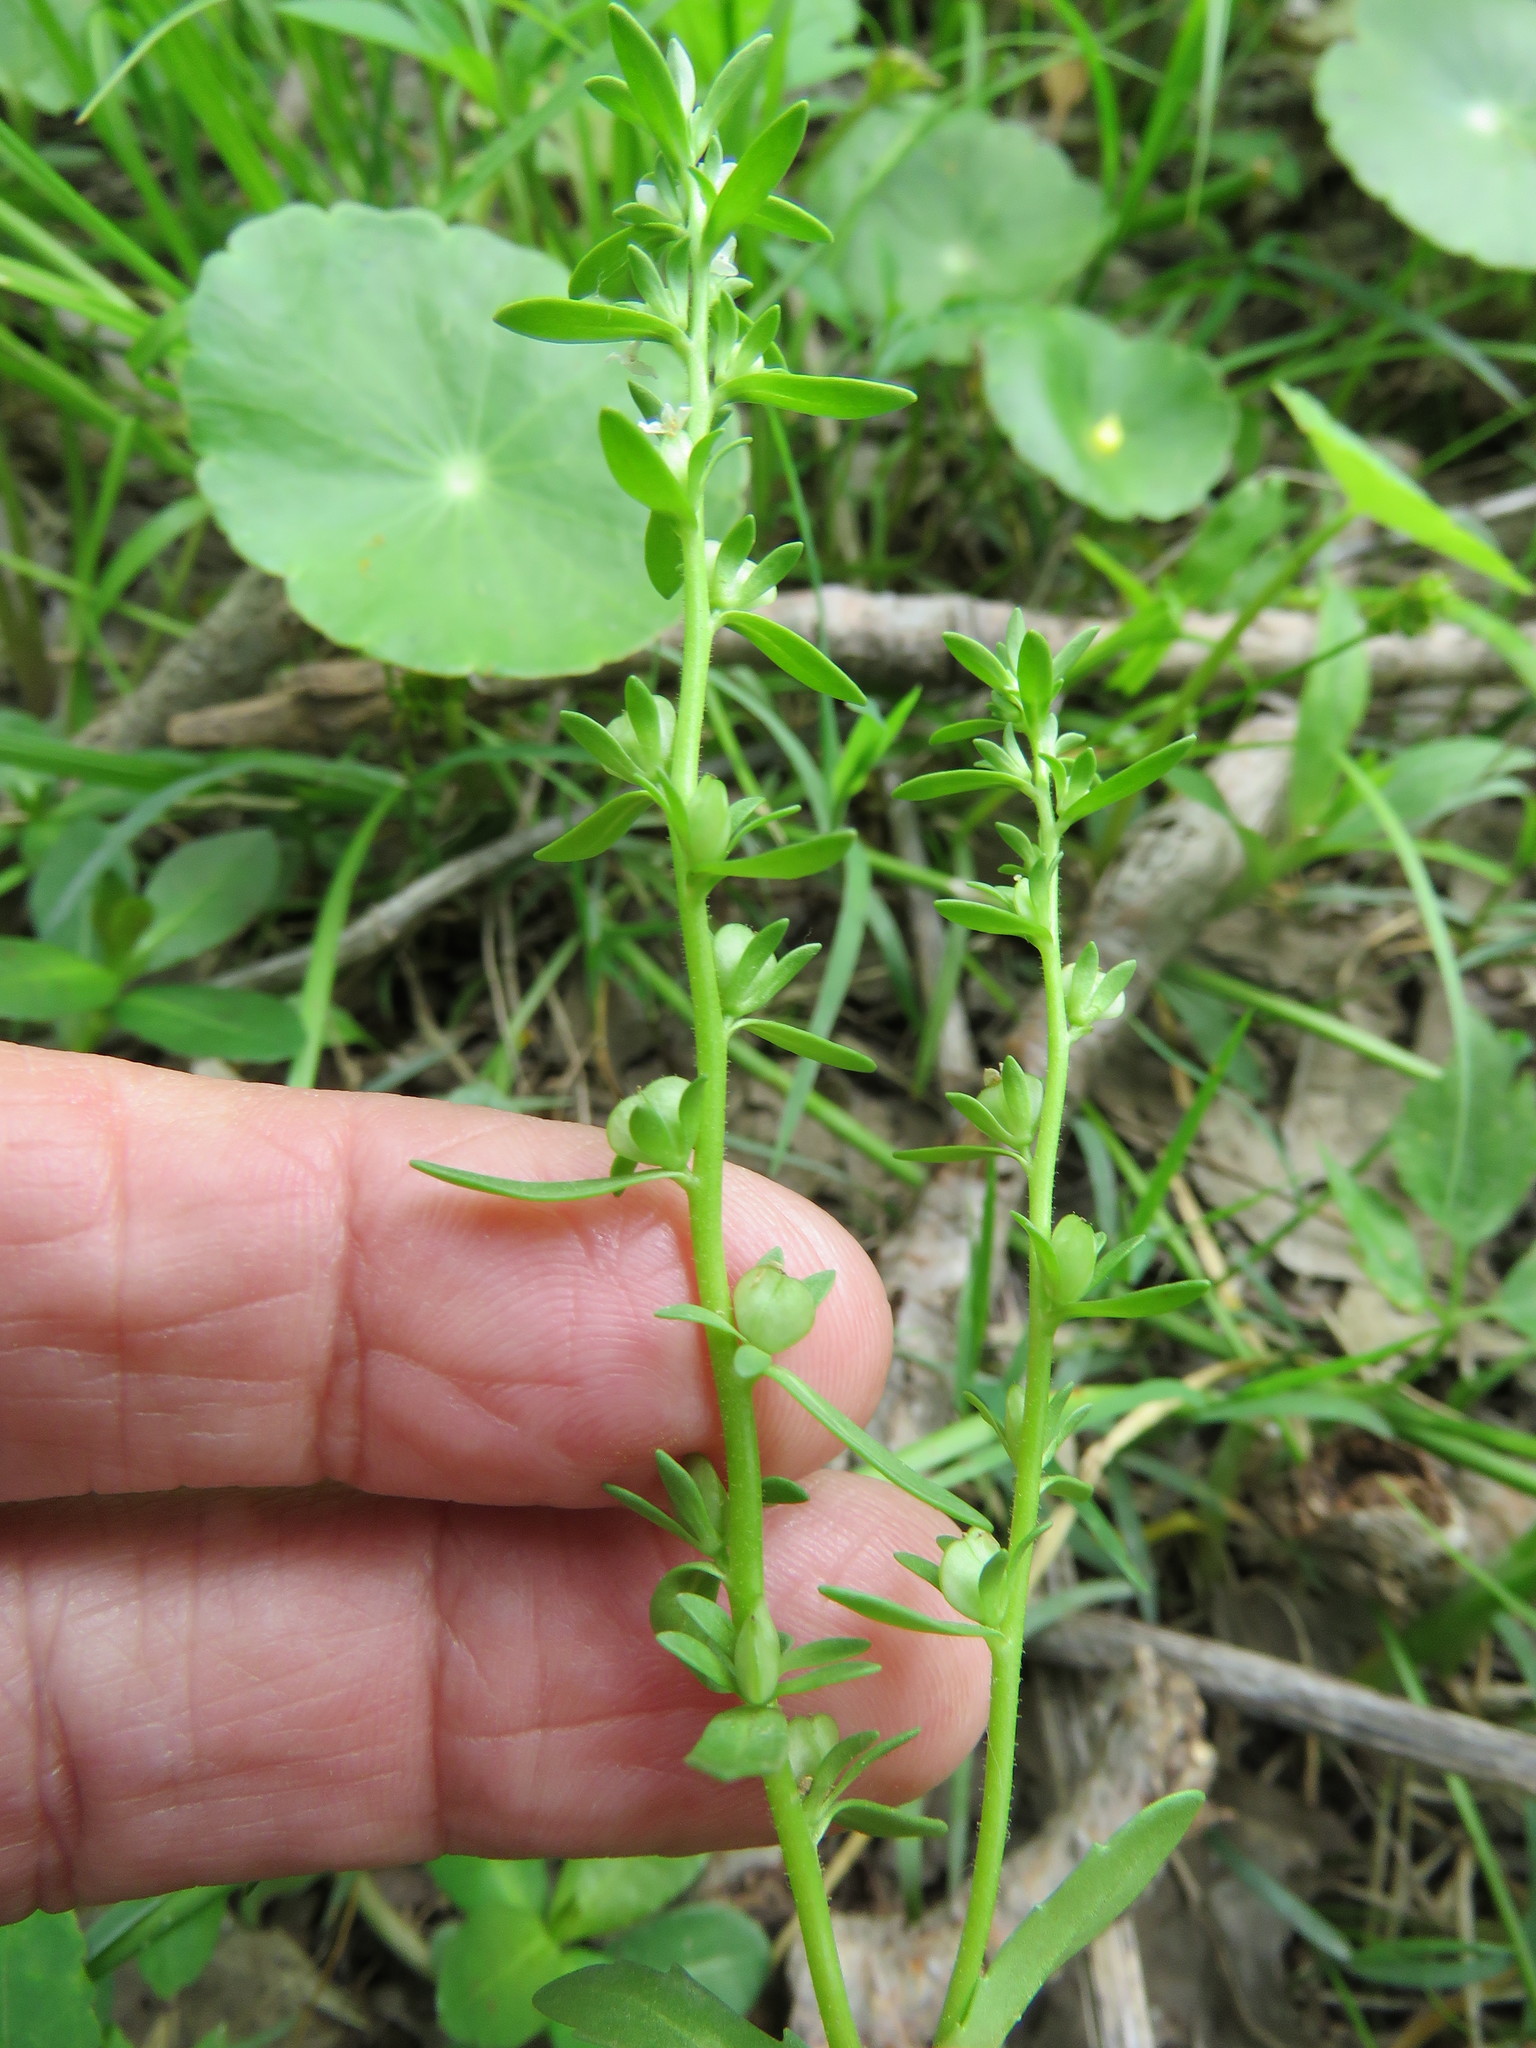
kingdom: Plantae
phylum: Tracheophyta
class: Magnoliopsida
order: Lamiales
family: Plantaginaceae
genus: Veronica
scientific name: Veronica peregrina
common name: Neckweed
